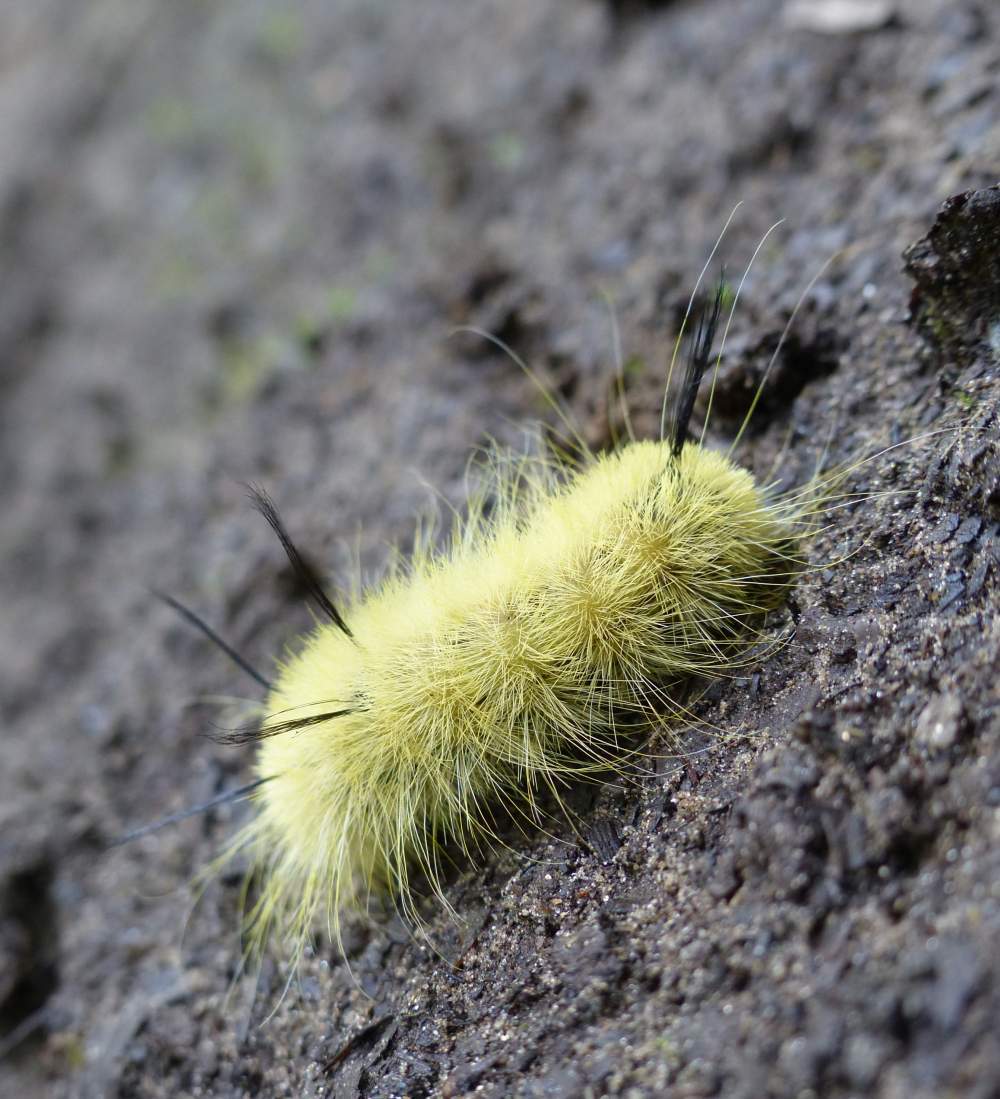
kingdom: Animalia
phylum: Arthropoda
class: Insecta
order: Lepidoptera
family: Noctuidae
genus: Acronicta
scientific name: Acronicta americana
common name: American dagger
